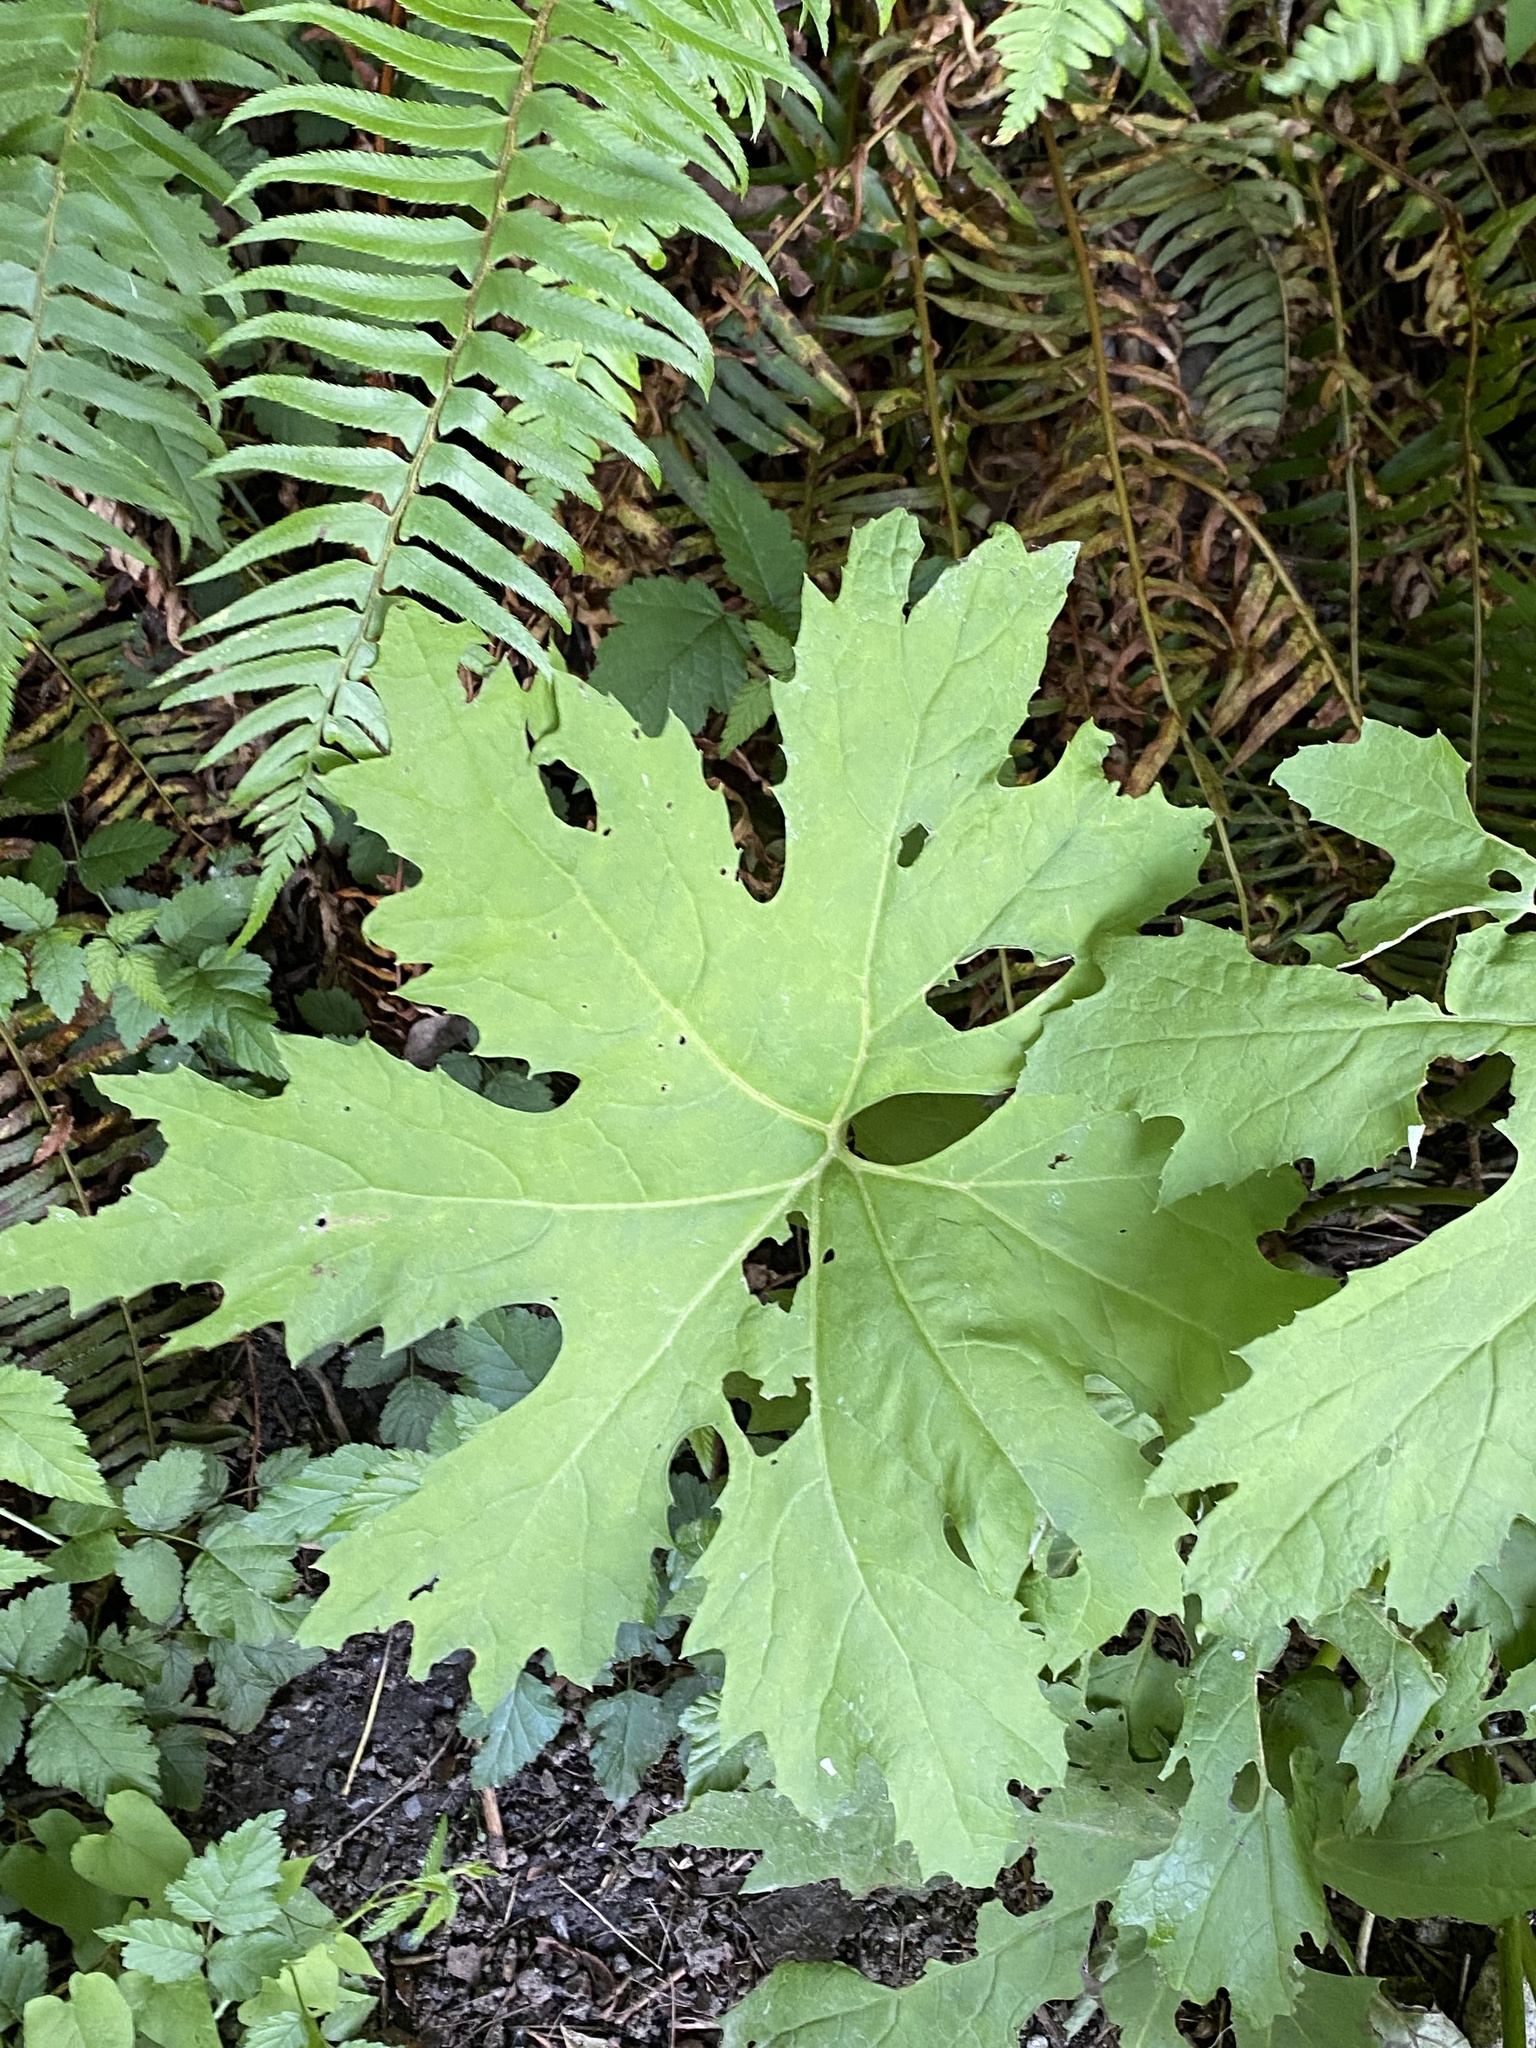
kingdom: Plantae
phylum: Tracheophyta
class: Magnoliopsida
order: Asterales
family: Asteraceae
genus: Petasites
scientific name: Petasites frigidus
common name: Arctic butterbur
